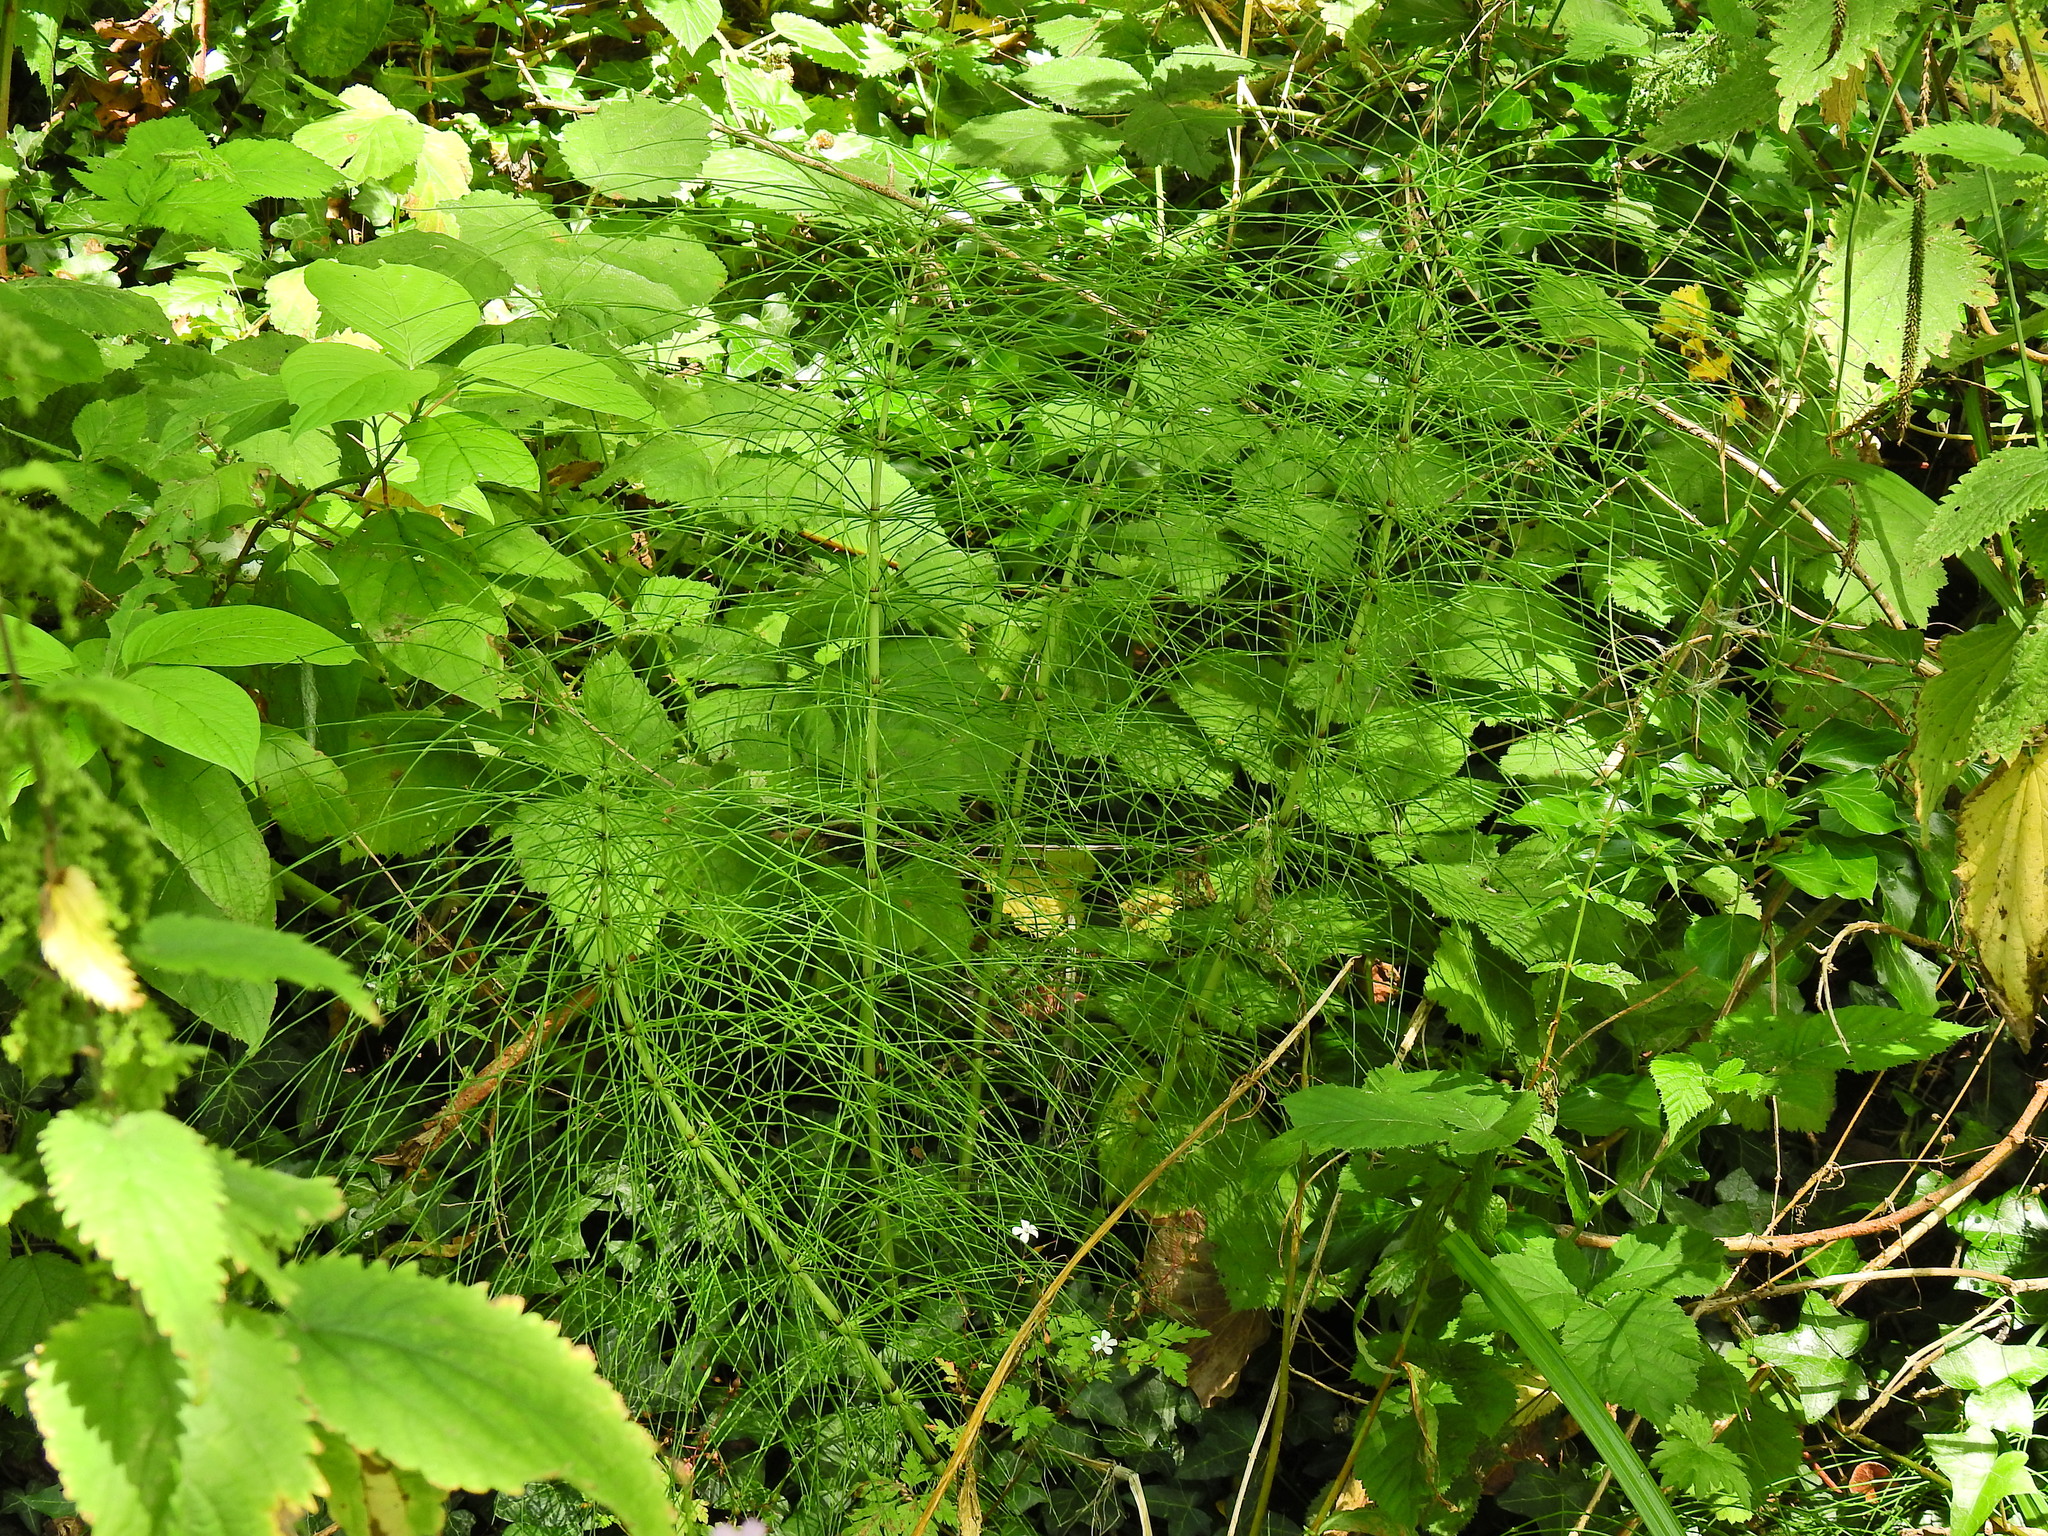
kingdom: Plantae
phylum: Tracheophyta
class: Polypodiopsida
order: Equisetales
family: Equisetaceae
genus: Equisetum
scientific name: Equisetum sylvaticum
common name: Wood horsetail
